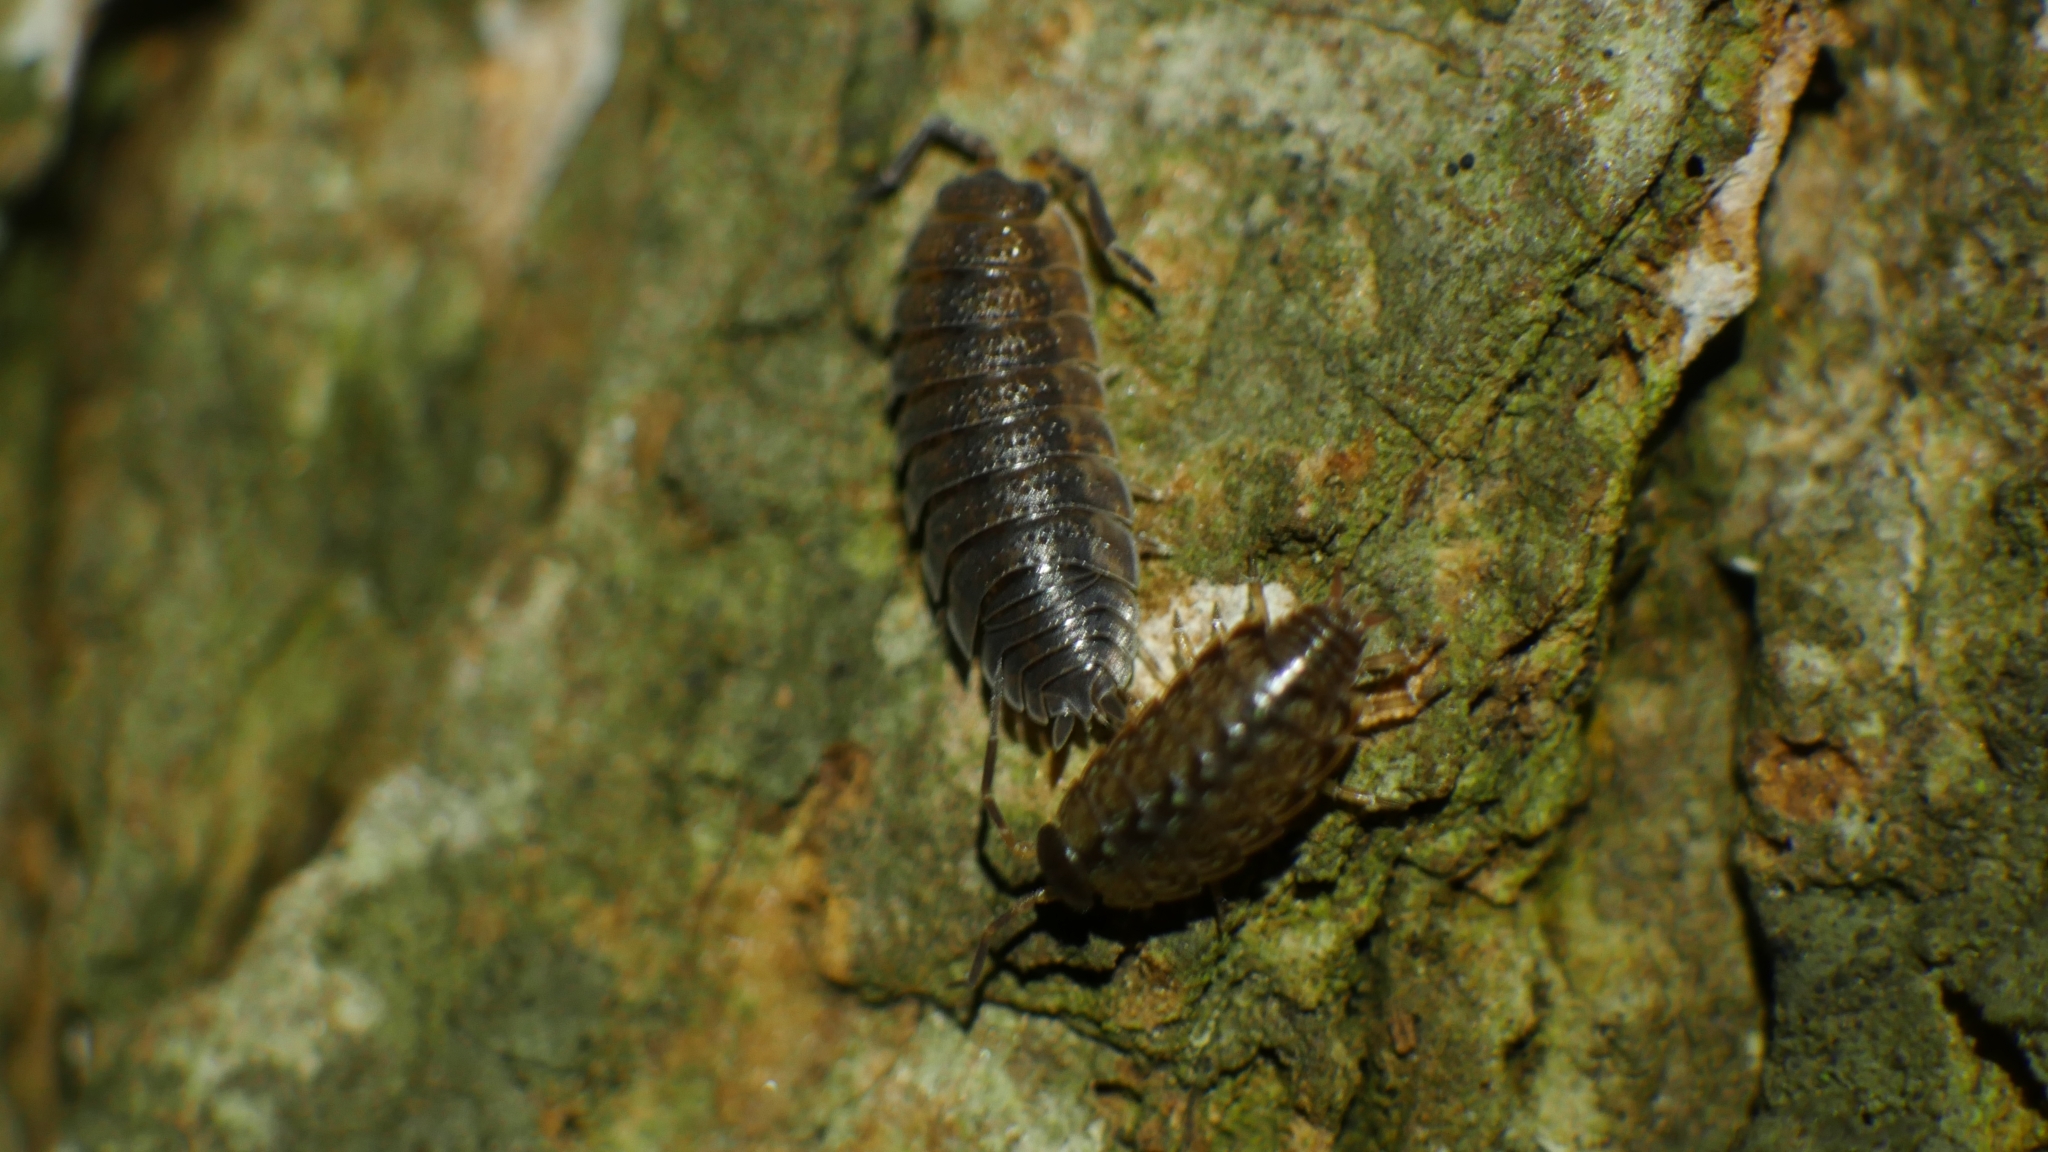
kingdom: Animalia
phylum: Arthropoda
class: Malacostraca
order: Isopoda
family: Philosciidae
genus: Philoscia
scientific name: Philoscia muscorum
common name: Common striped woodlouse
